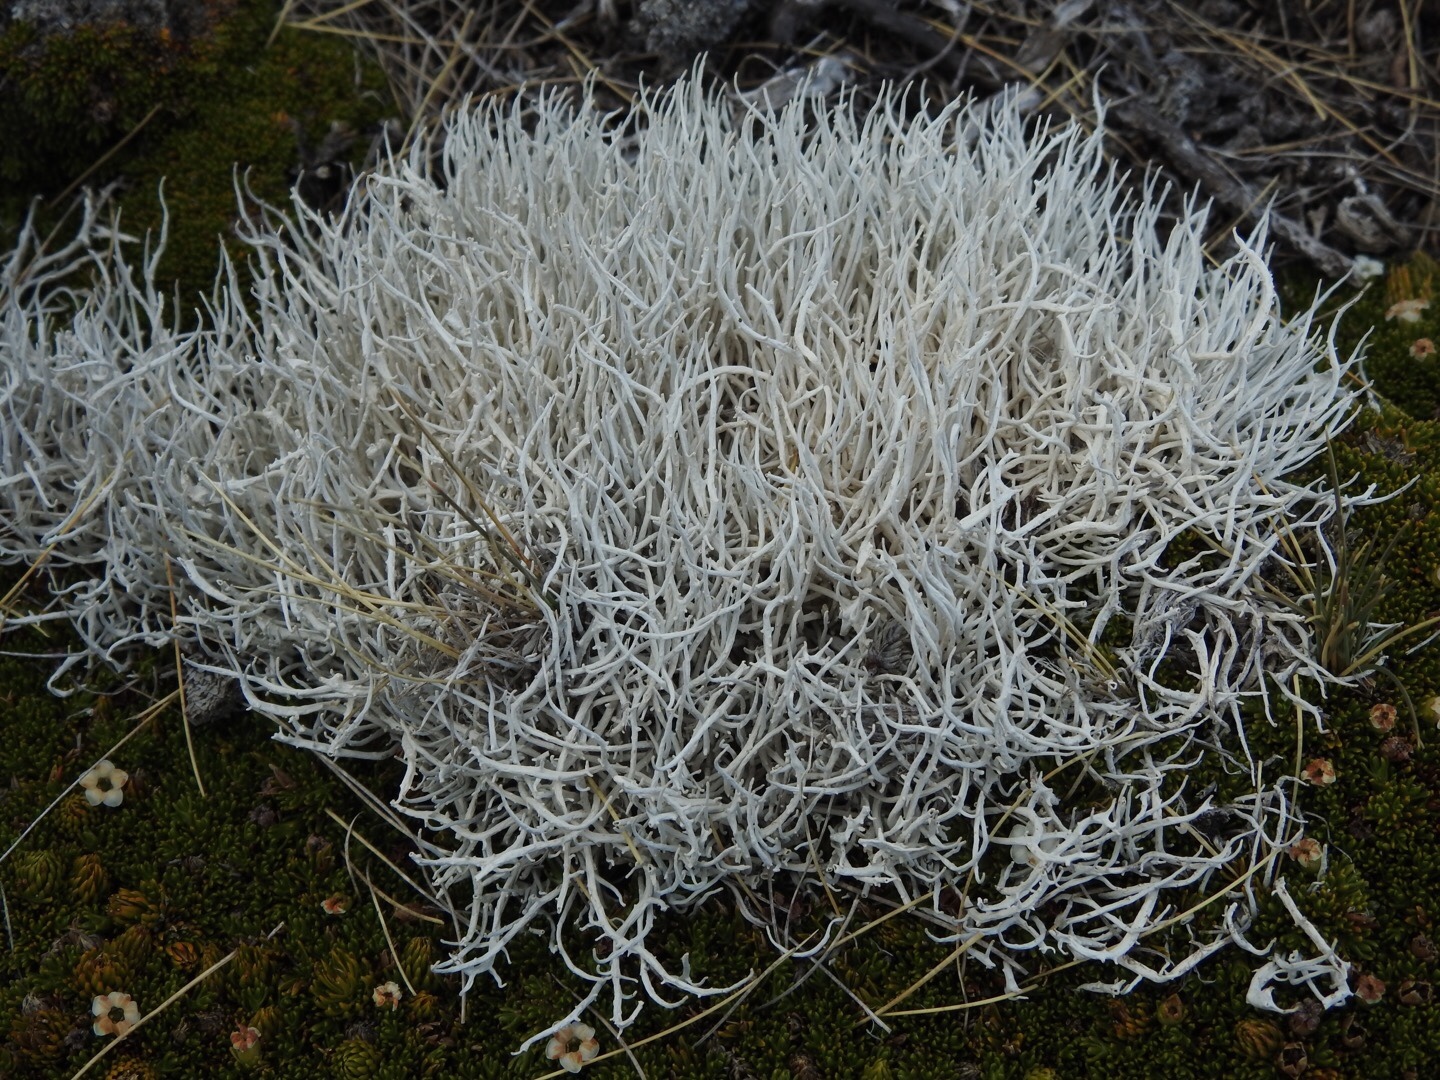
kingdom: Fungi
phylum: Ascomycota
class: Lecanoromycetes
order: Pertusariales
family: Icmadophilaceae
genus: Thamnolia
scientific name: Thamnolia vermicularis
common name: Whiteworm lichen
